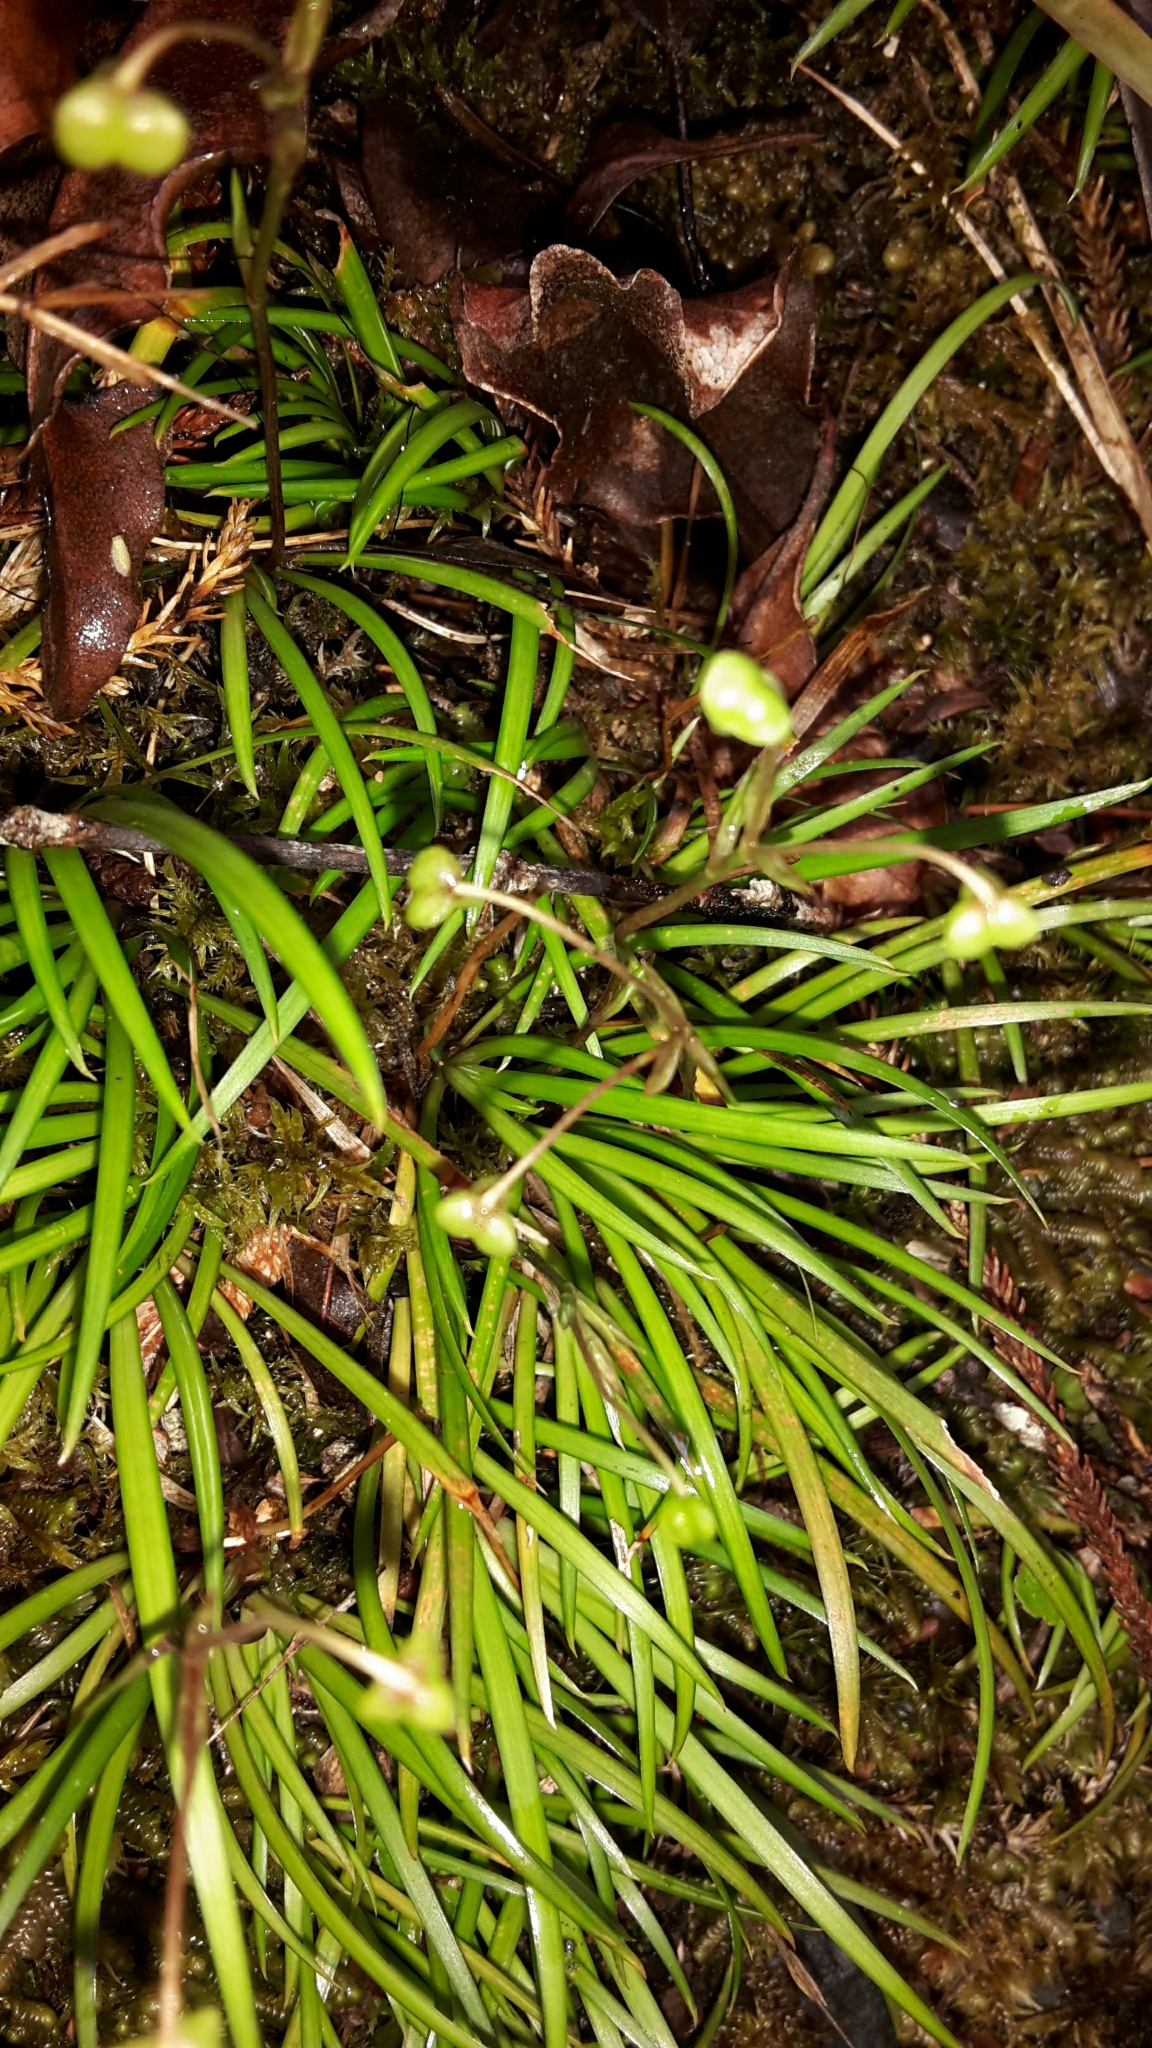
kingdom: Plantae
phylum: Tracheophyta
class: Liliopsida
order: Asparagales
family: Iridaceae
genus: Libertia
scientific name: Libertia micrantha
